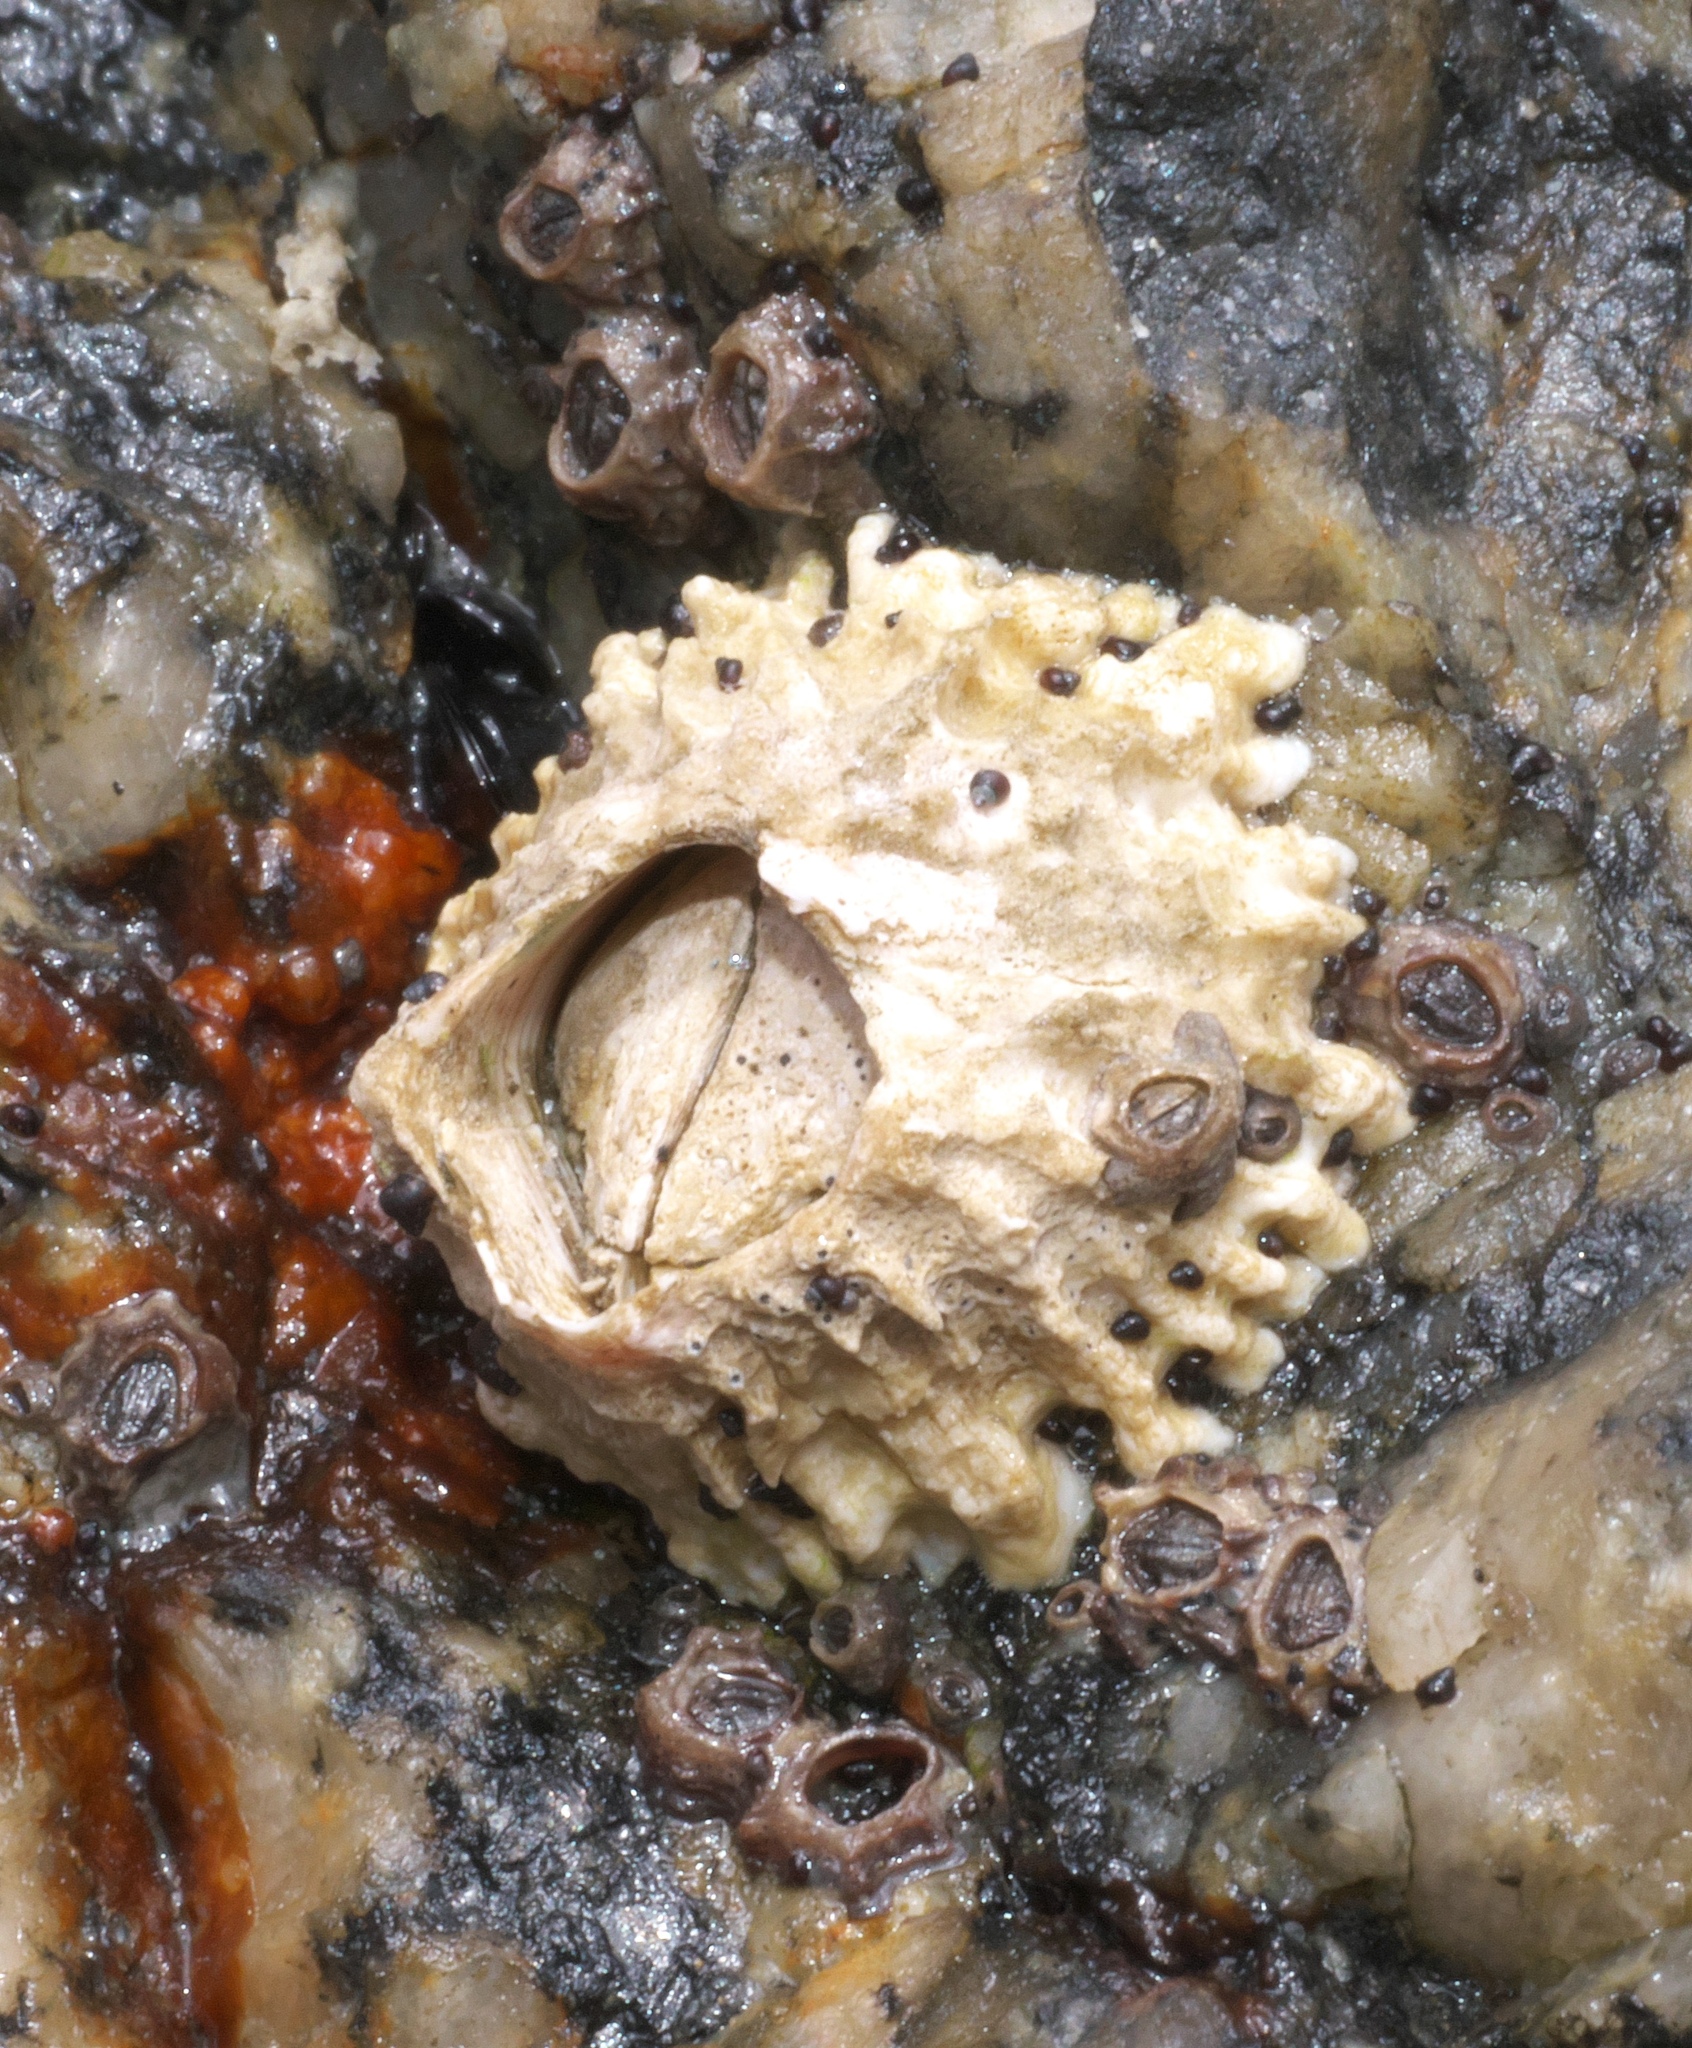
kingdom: Animalia
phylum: Arthropoda
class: Maxillopoda
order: Sessilia
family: Chthamalidae
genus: Chamaesipho
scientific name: Chamaesipho columna
